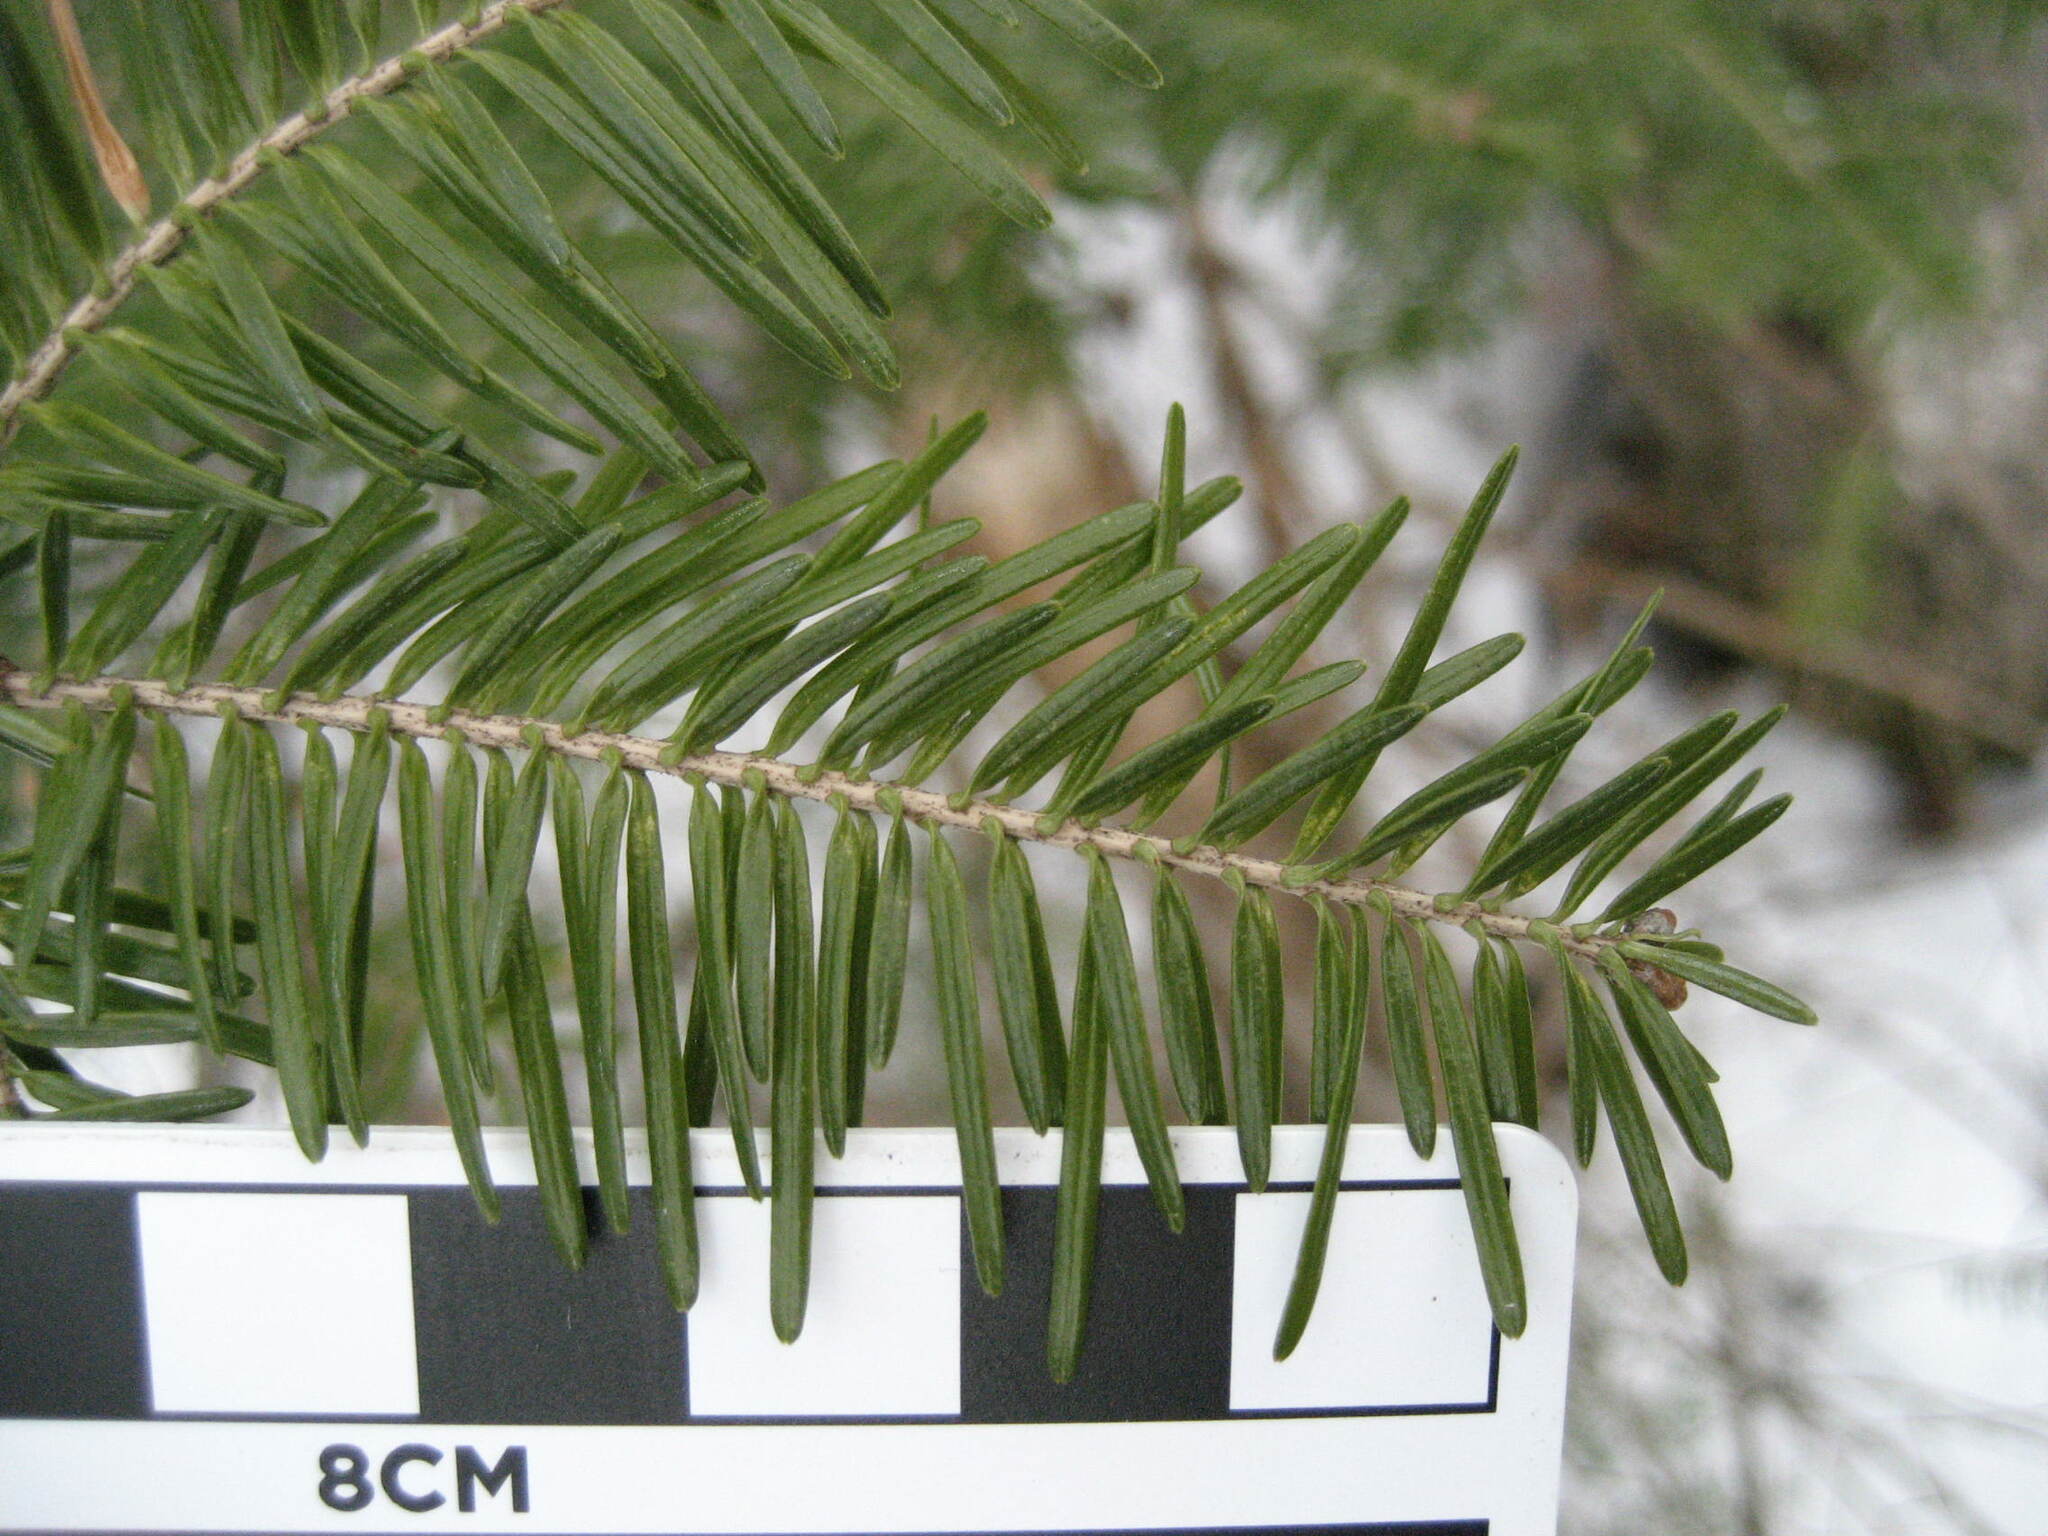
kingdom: Plantae
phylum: Tracheophyta
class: Pinopsida
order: Pinales
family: Pinaceae
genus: Abies
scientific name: Abies balsamea
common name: Balsam fir
